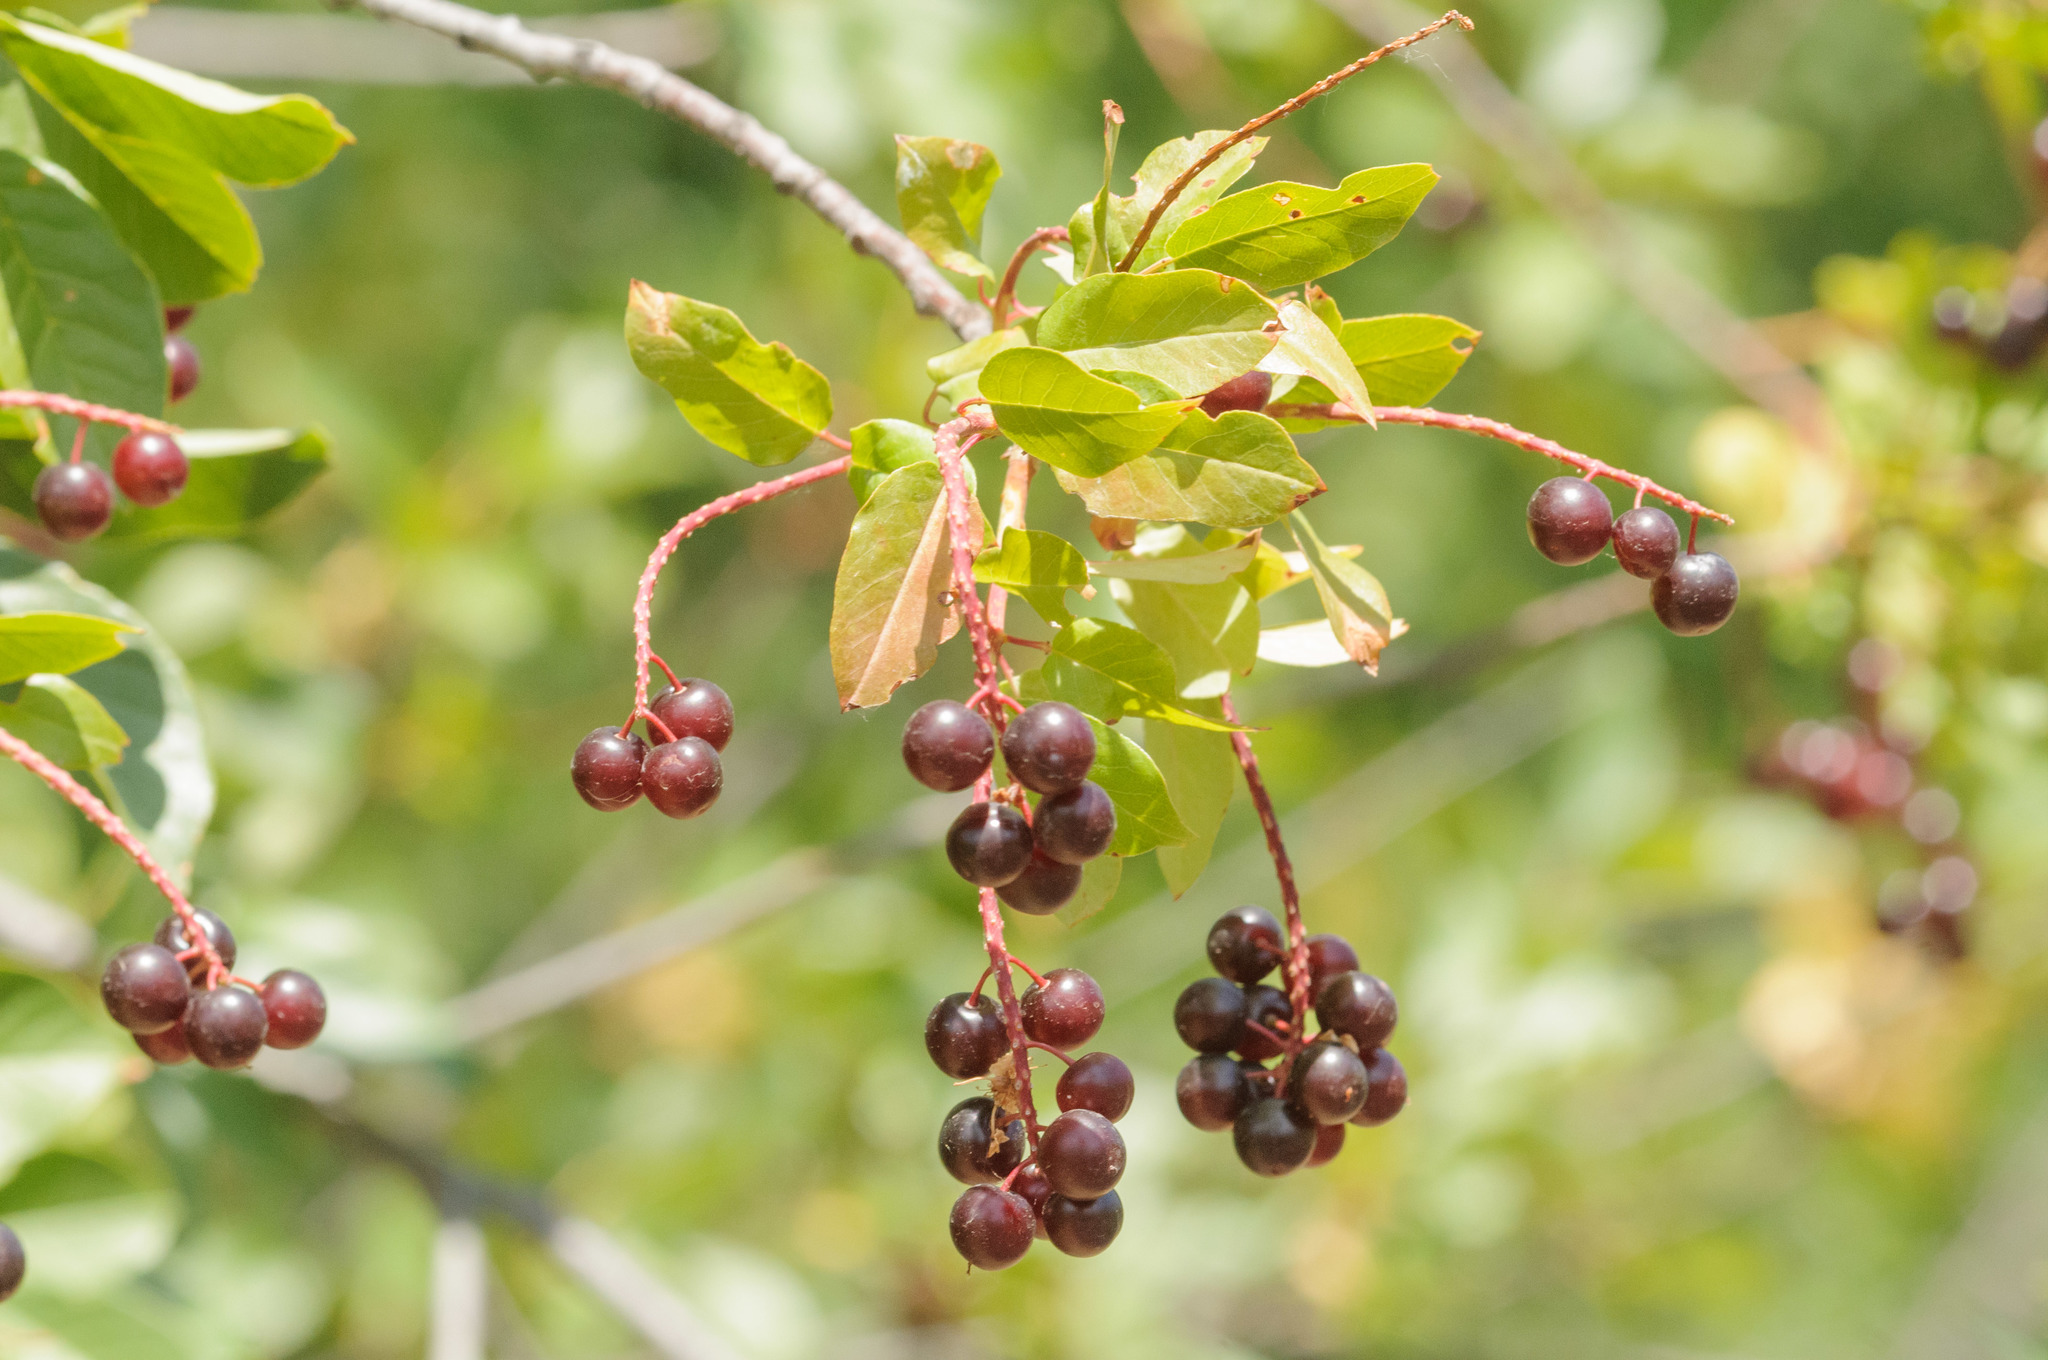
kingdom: Plantae
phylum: Tracheophyta
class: Magnoliopsida
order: Rosales
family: Rosaceae
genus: Prunus
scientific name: Prunus virginiana
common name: Chokecherry
